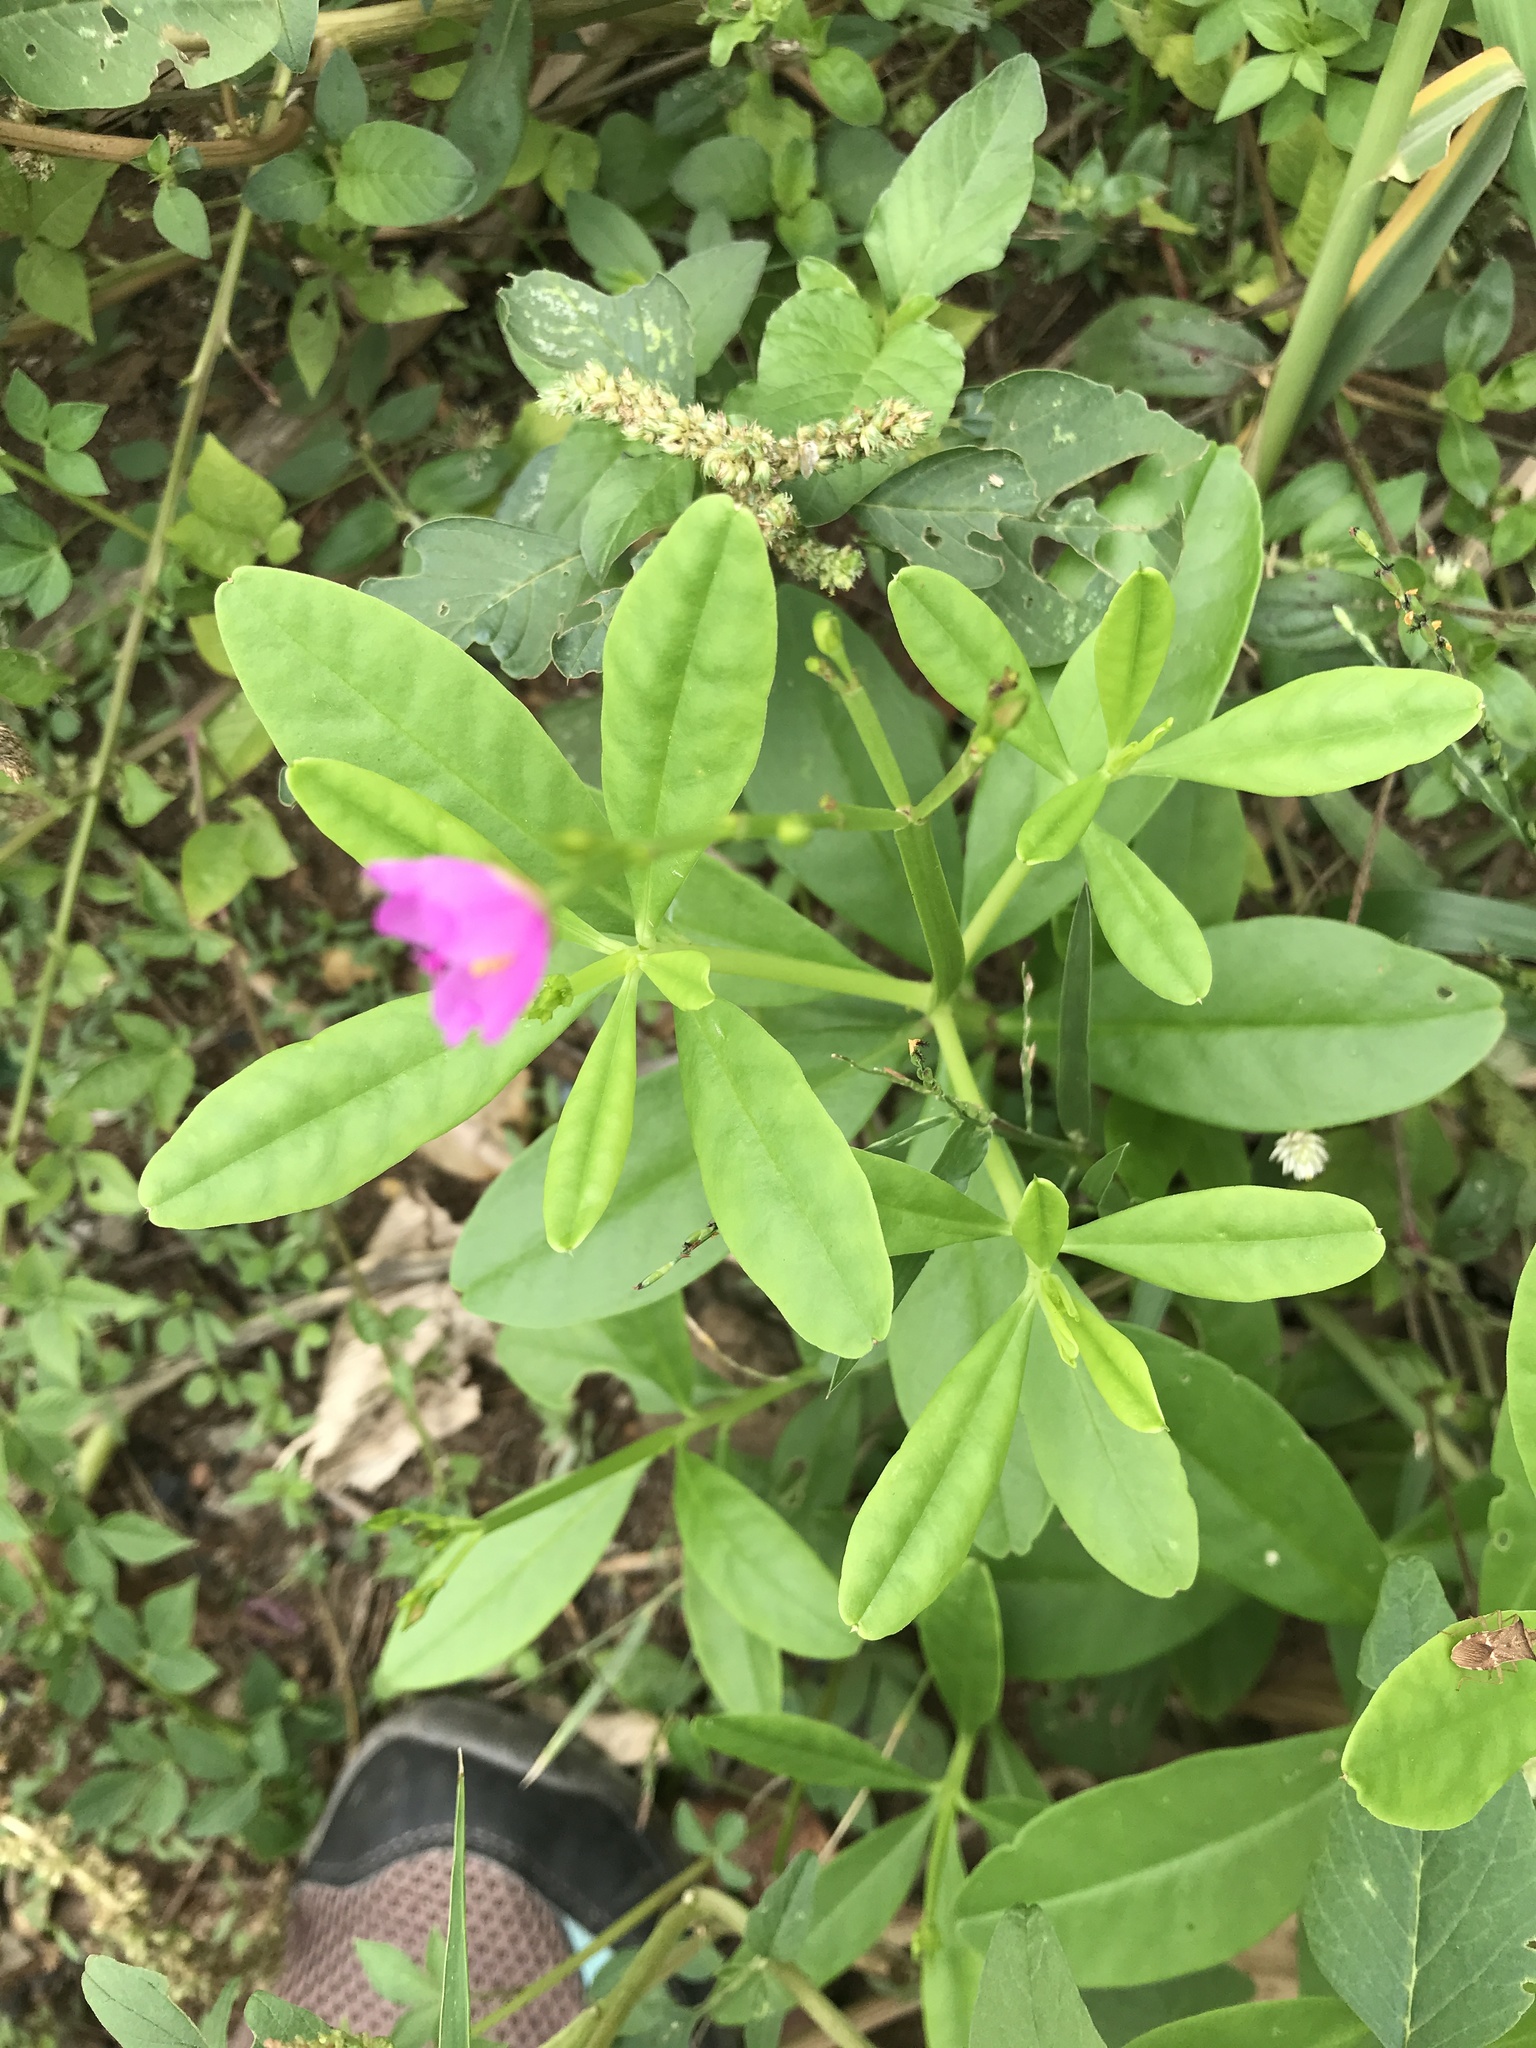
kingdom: Plantae
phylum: Tracheophyta
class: Magnoliopsida
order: Caryophyllales
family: Talinaceae
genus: Talinum
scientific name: Talinum fruticosum
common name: Verdolaga-francesa
